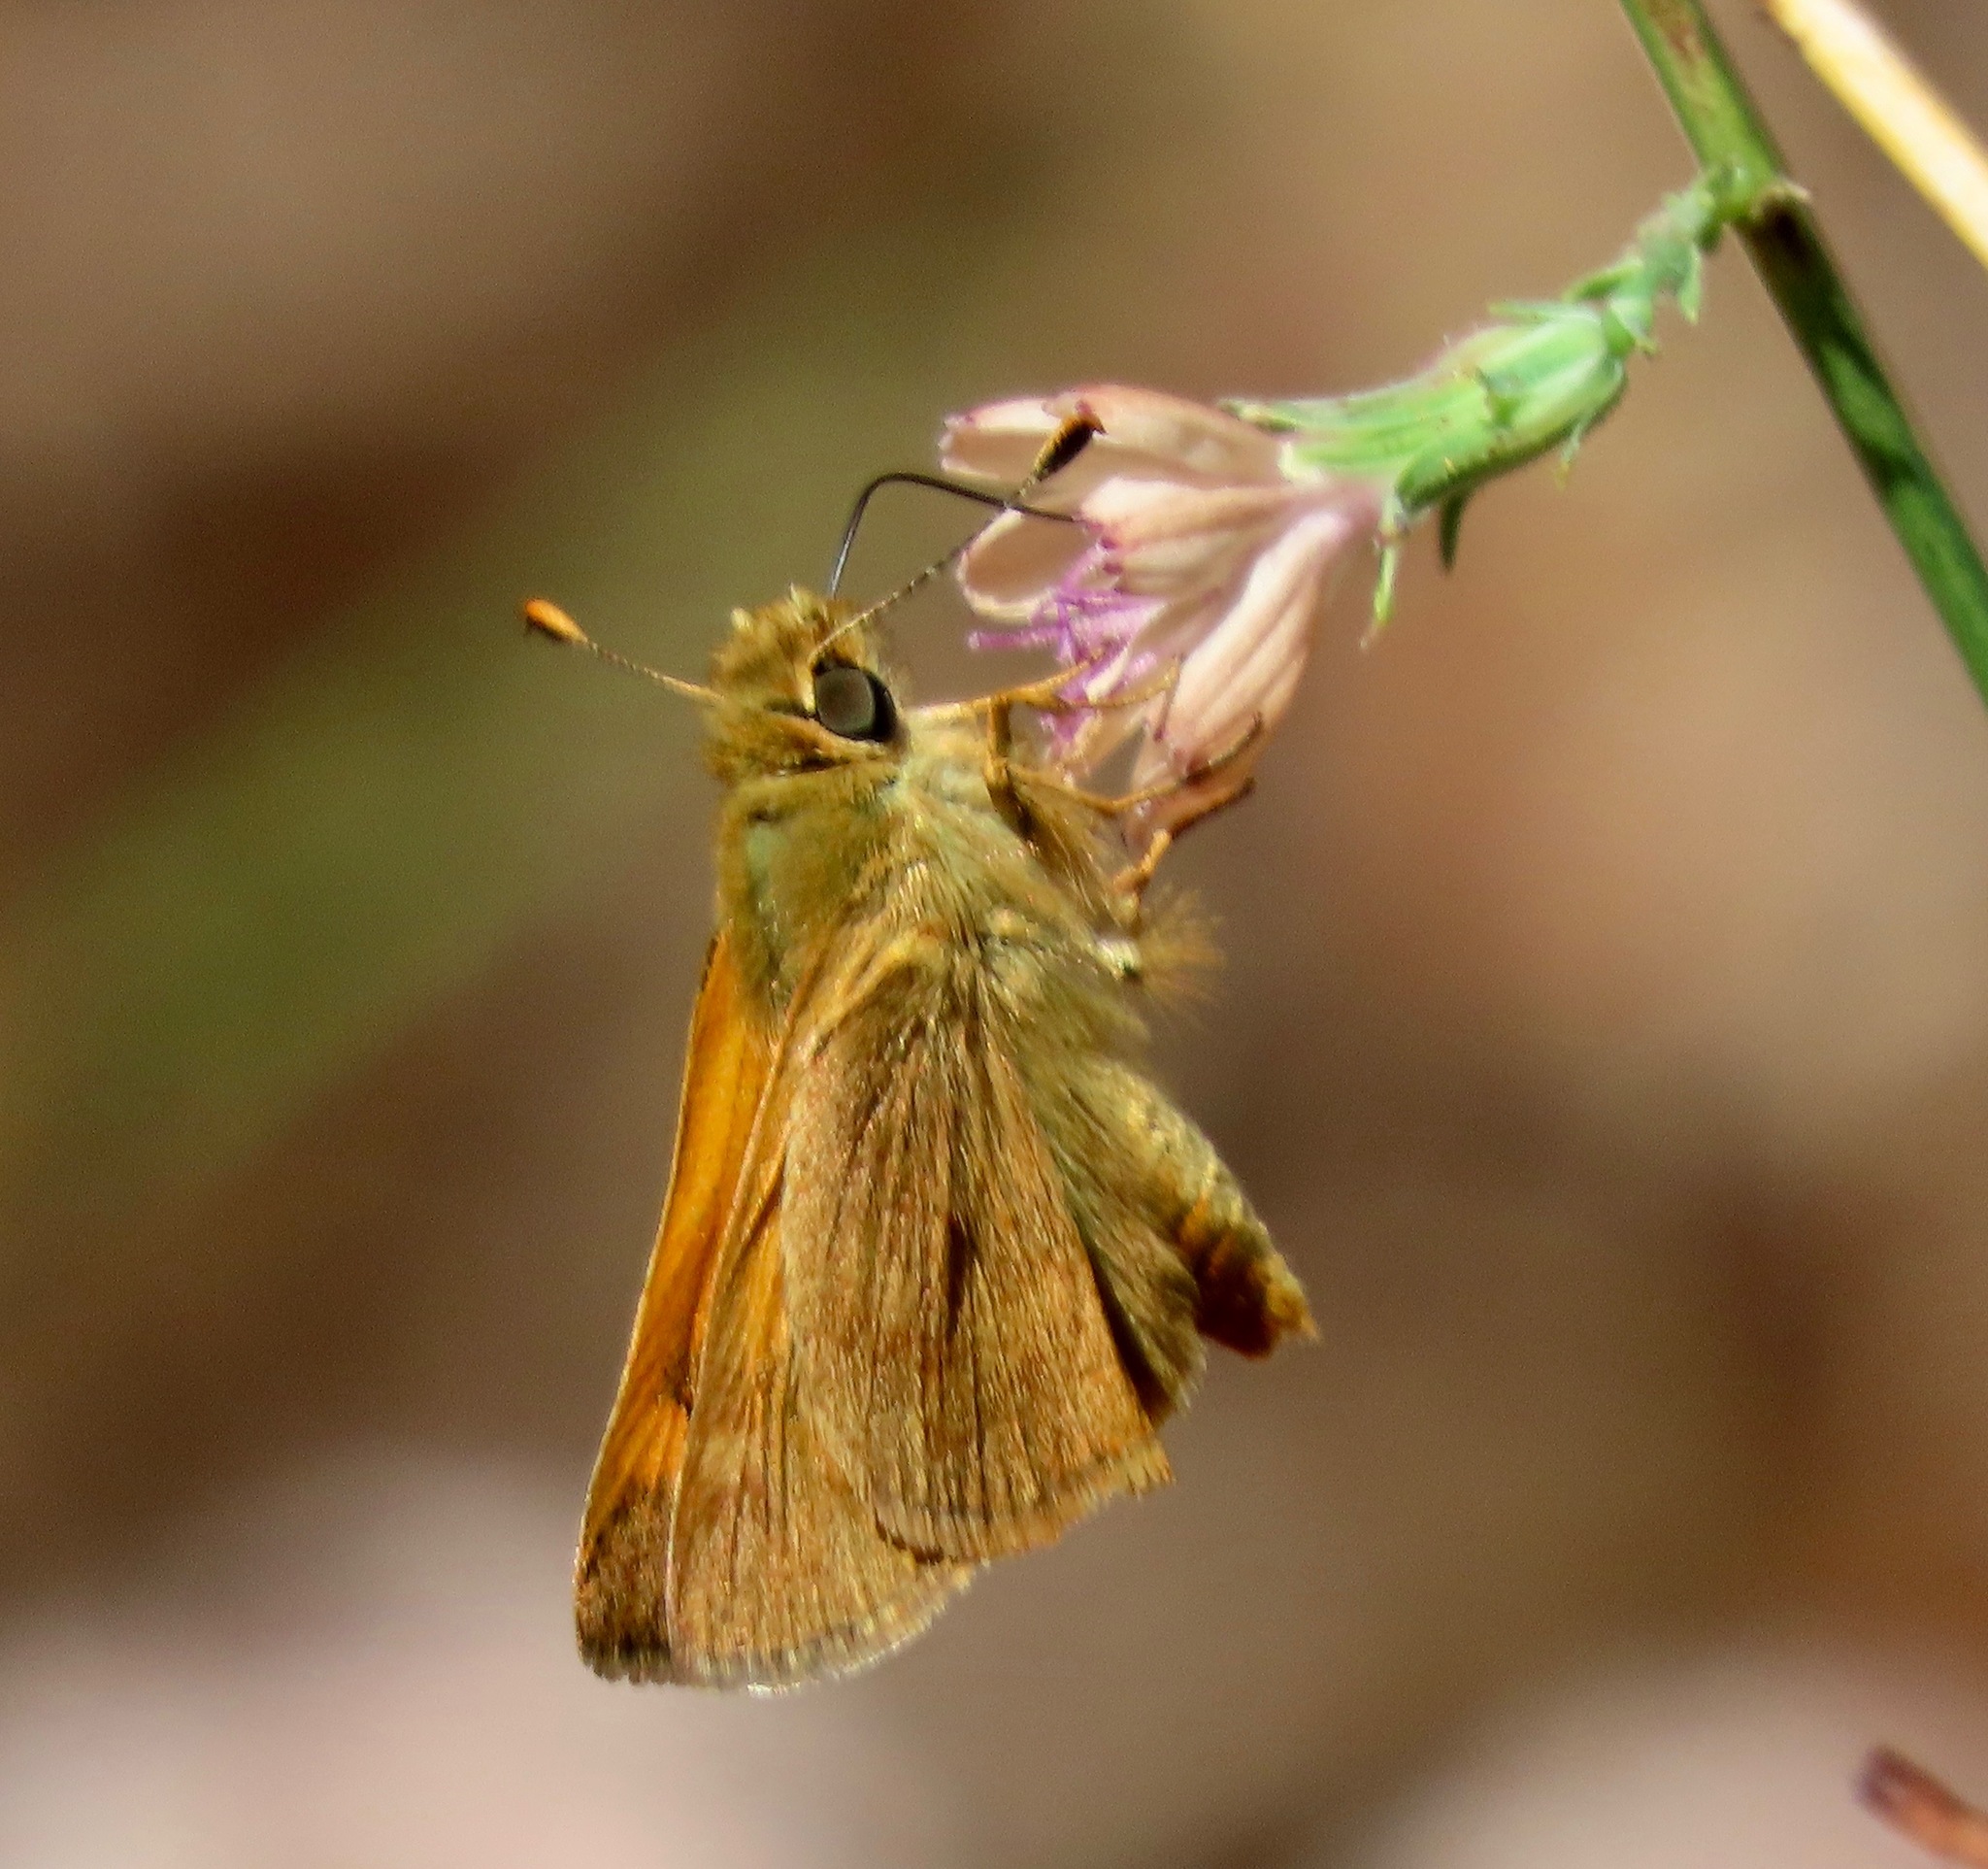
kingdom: Animalia
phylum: Arthropoda
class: Insecta
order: Lepidoptera
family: Hesperiidae
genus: Ochlodes
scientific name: Ochlodes sylvanoides
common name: Woodland skipper
